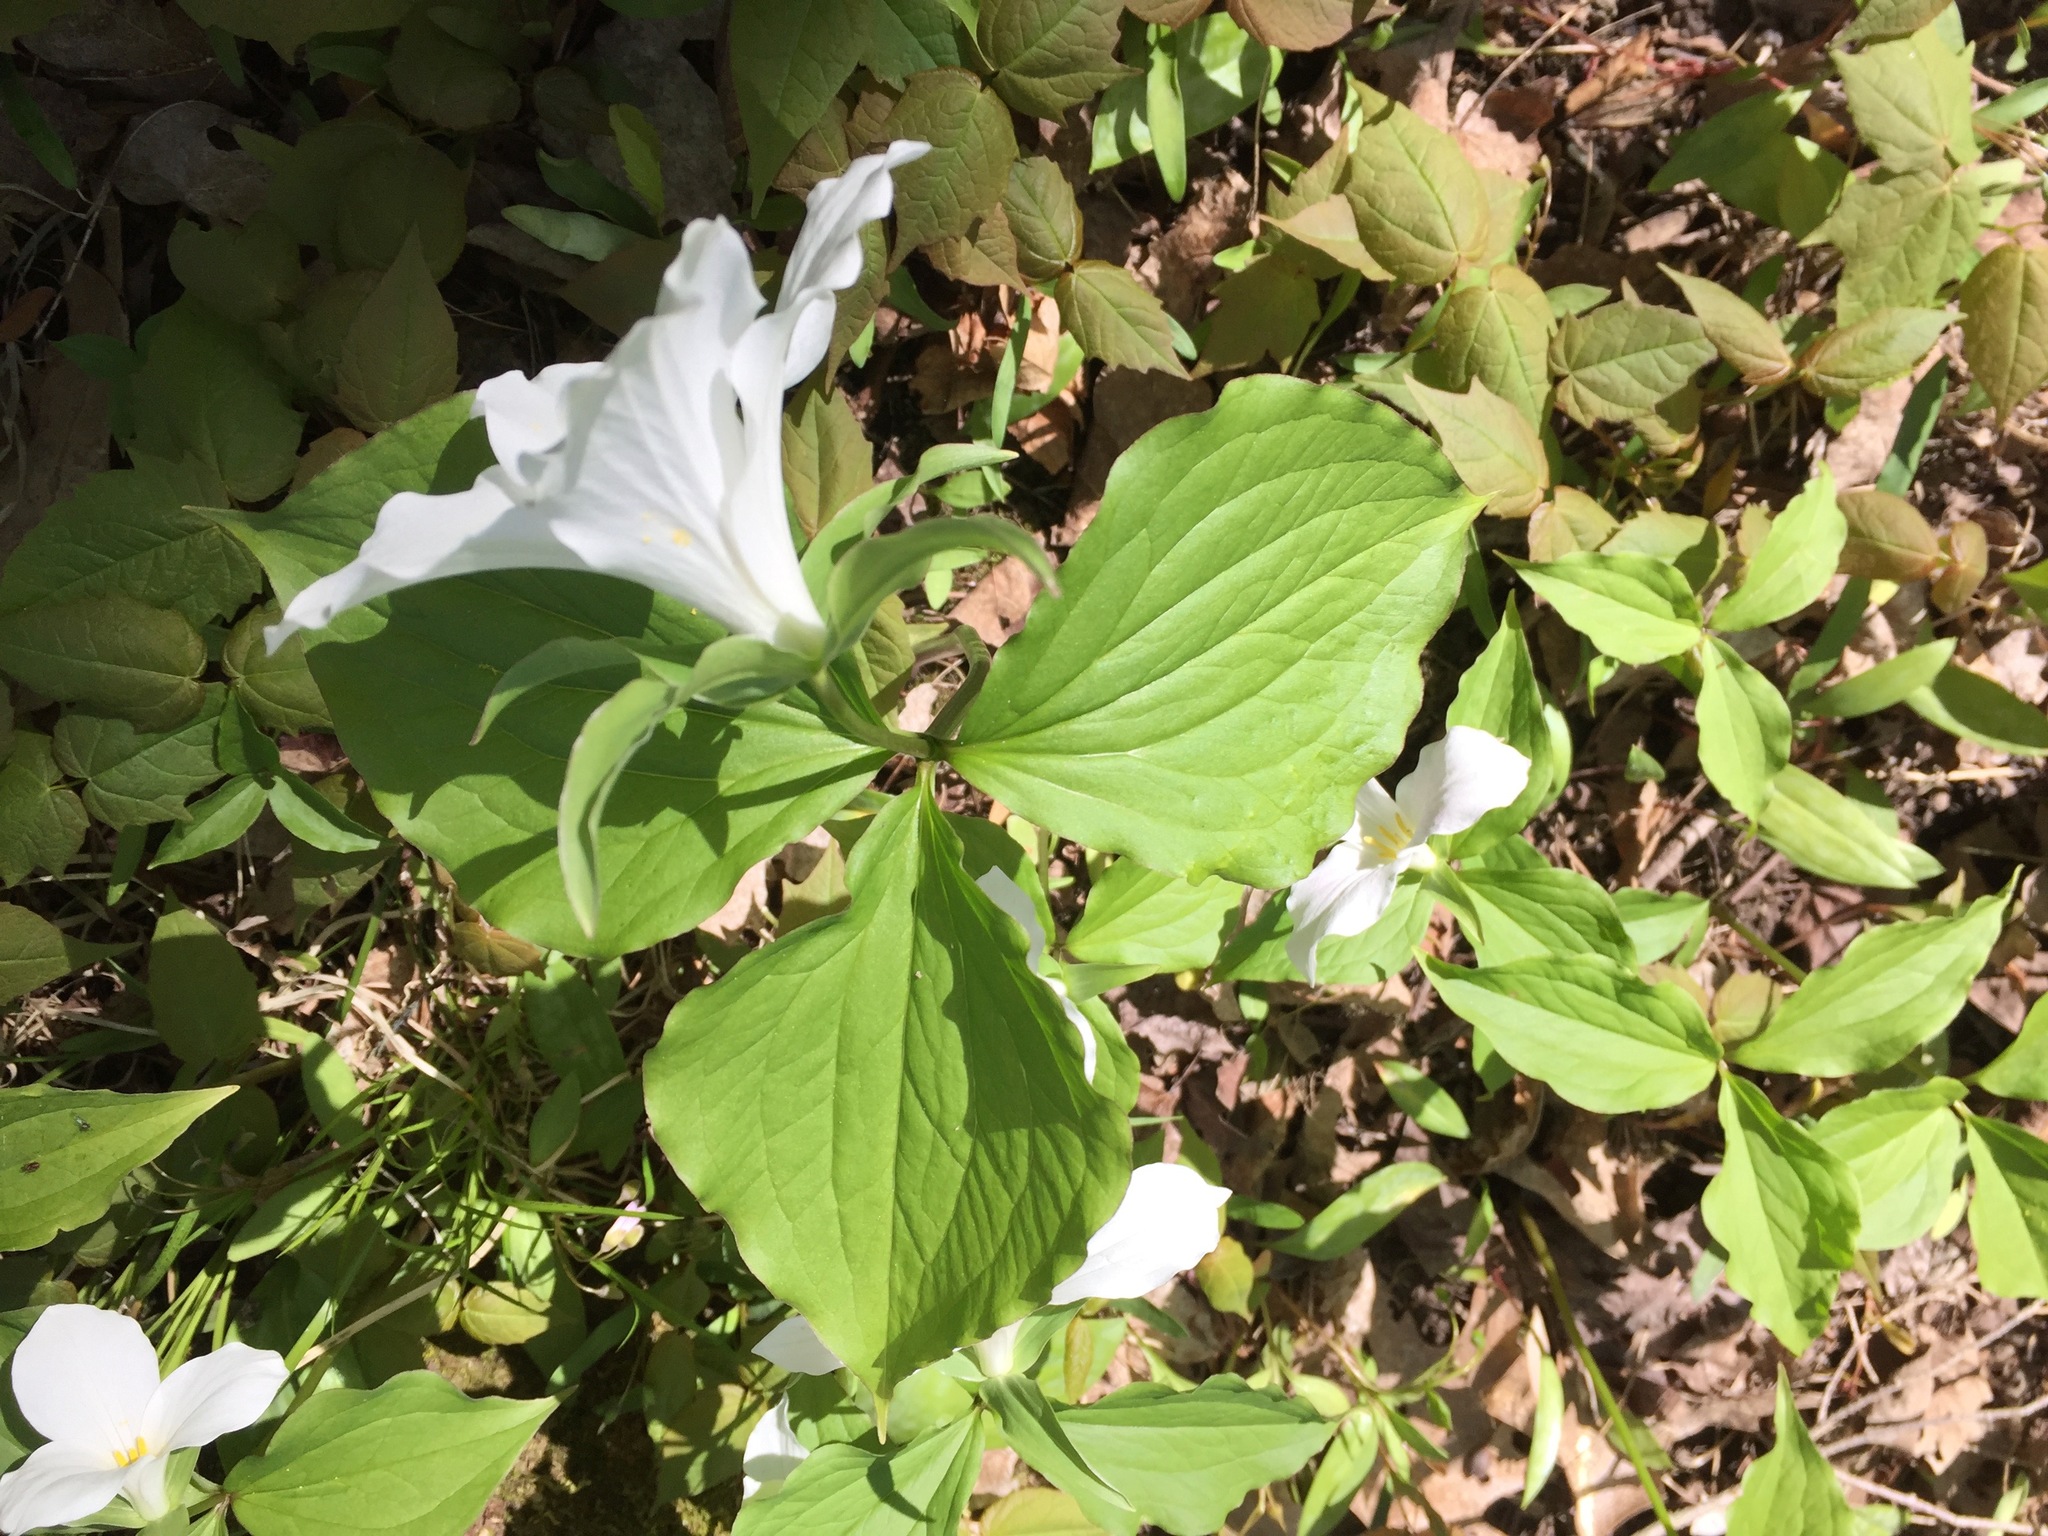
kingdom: Plantae
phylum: Tracheophyta
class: Liliopsida
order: Liliales
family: Melanthiaceae
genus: Trillium
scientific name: Trillium grandiflorum
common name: Great white trillium
